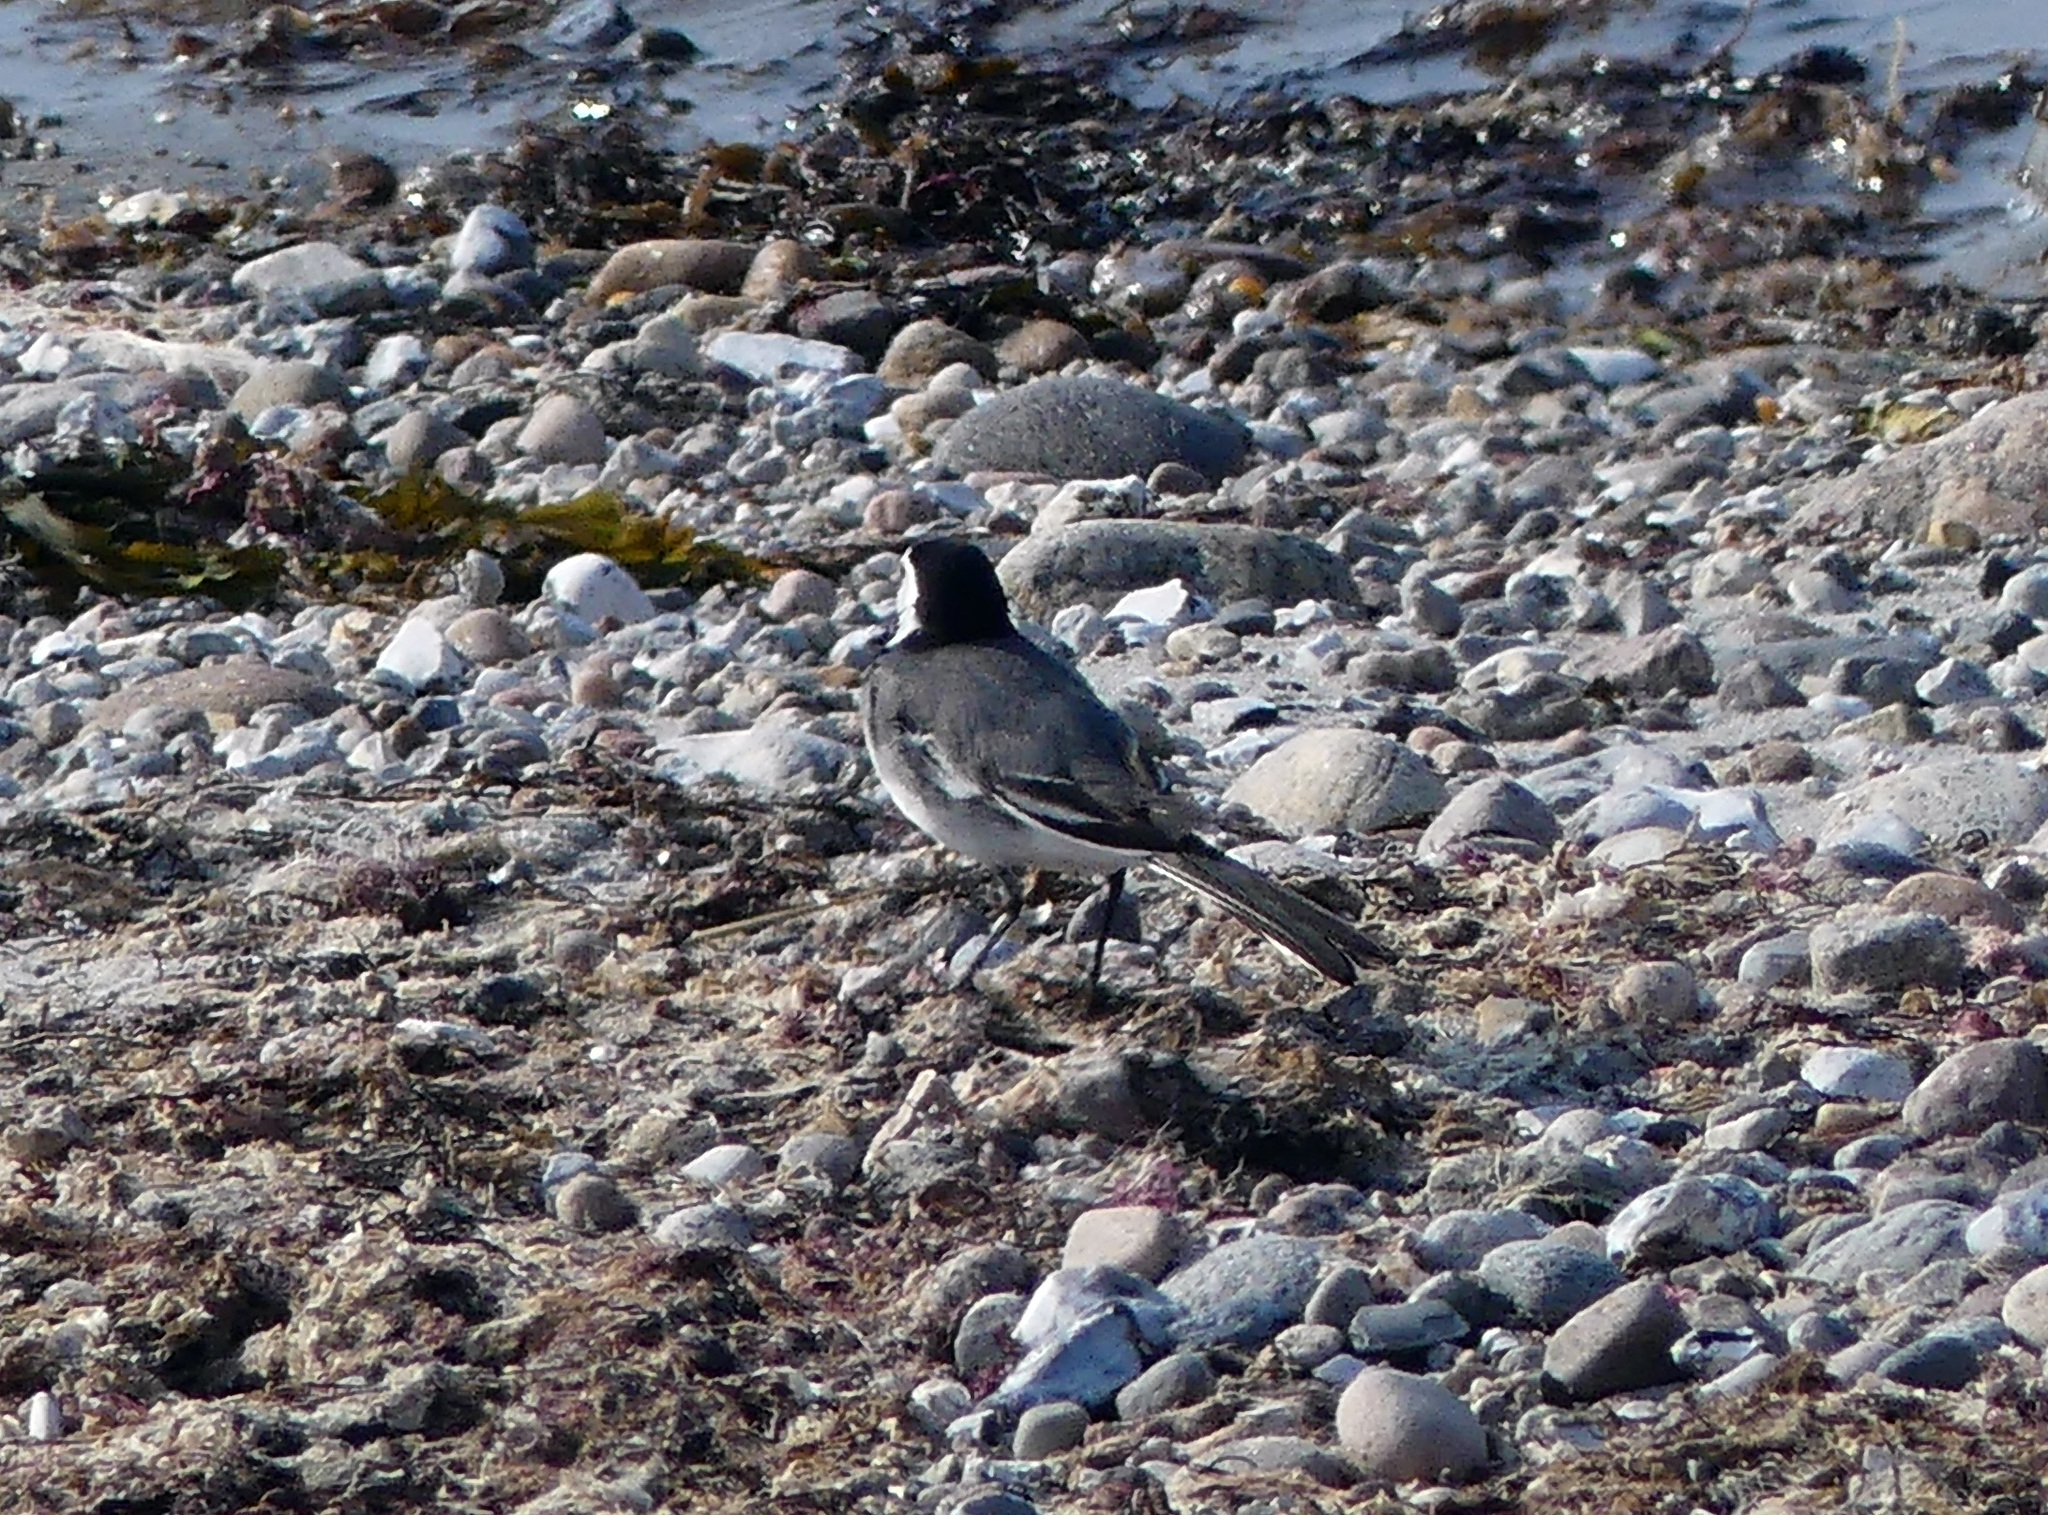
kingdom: Animalia
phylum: Chordata
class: Aves
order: Passeriformes
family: Motacillidae
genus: Motacilla
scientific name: Motacilla alba
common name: White wagtail
